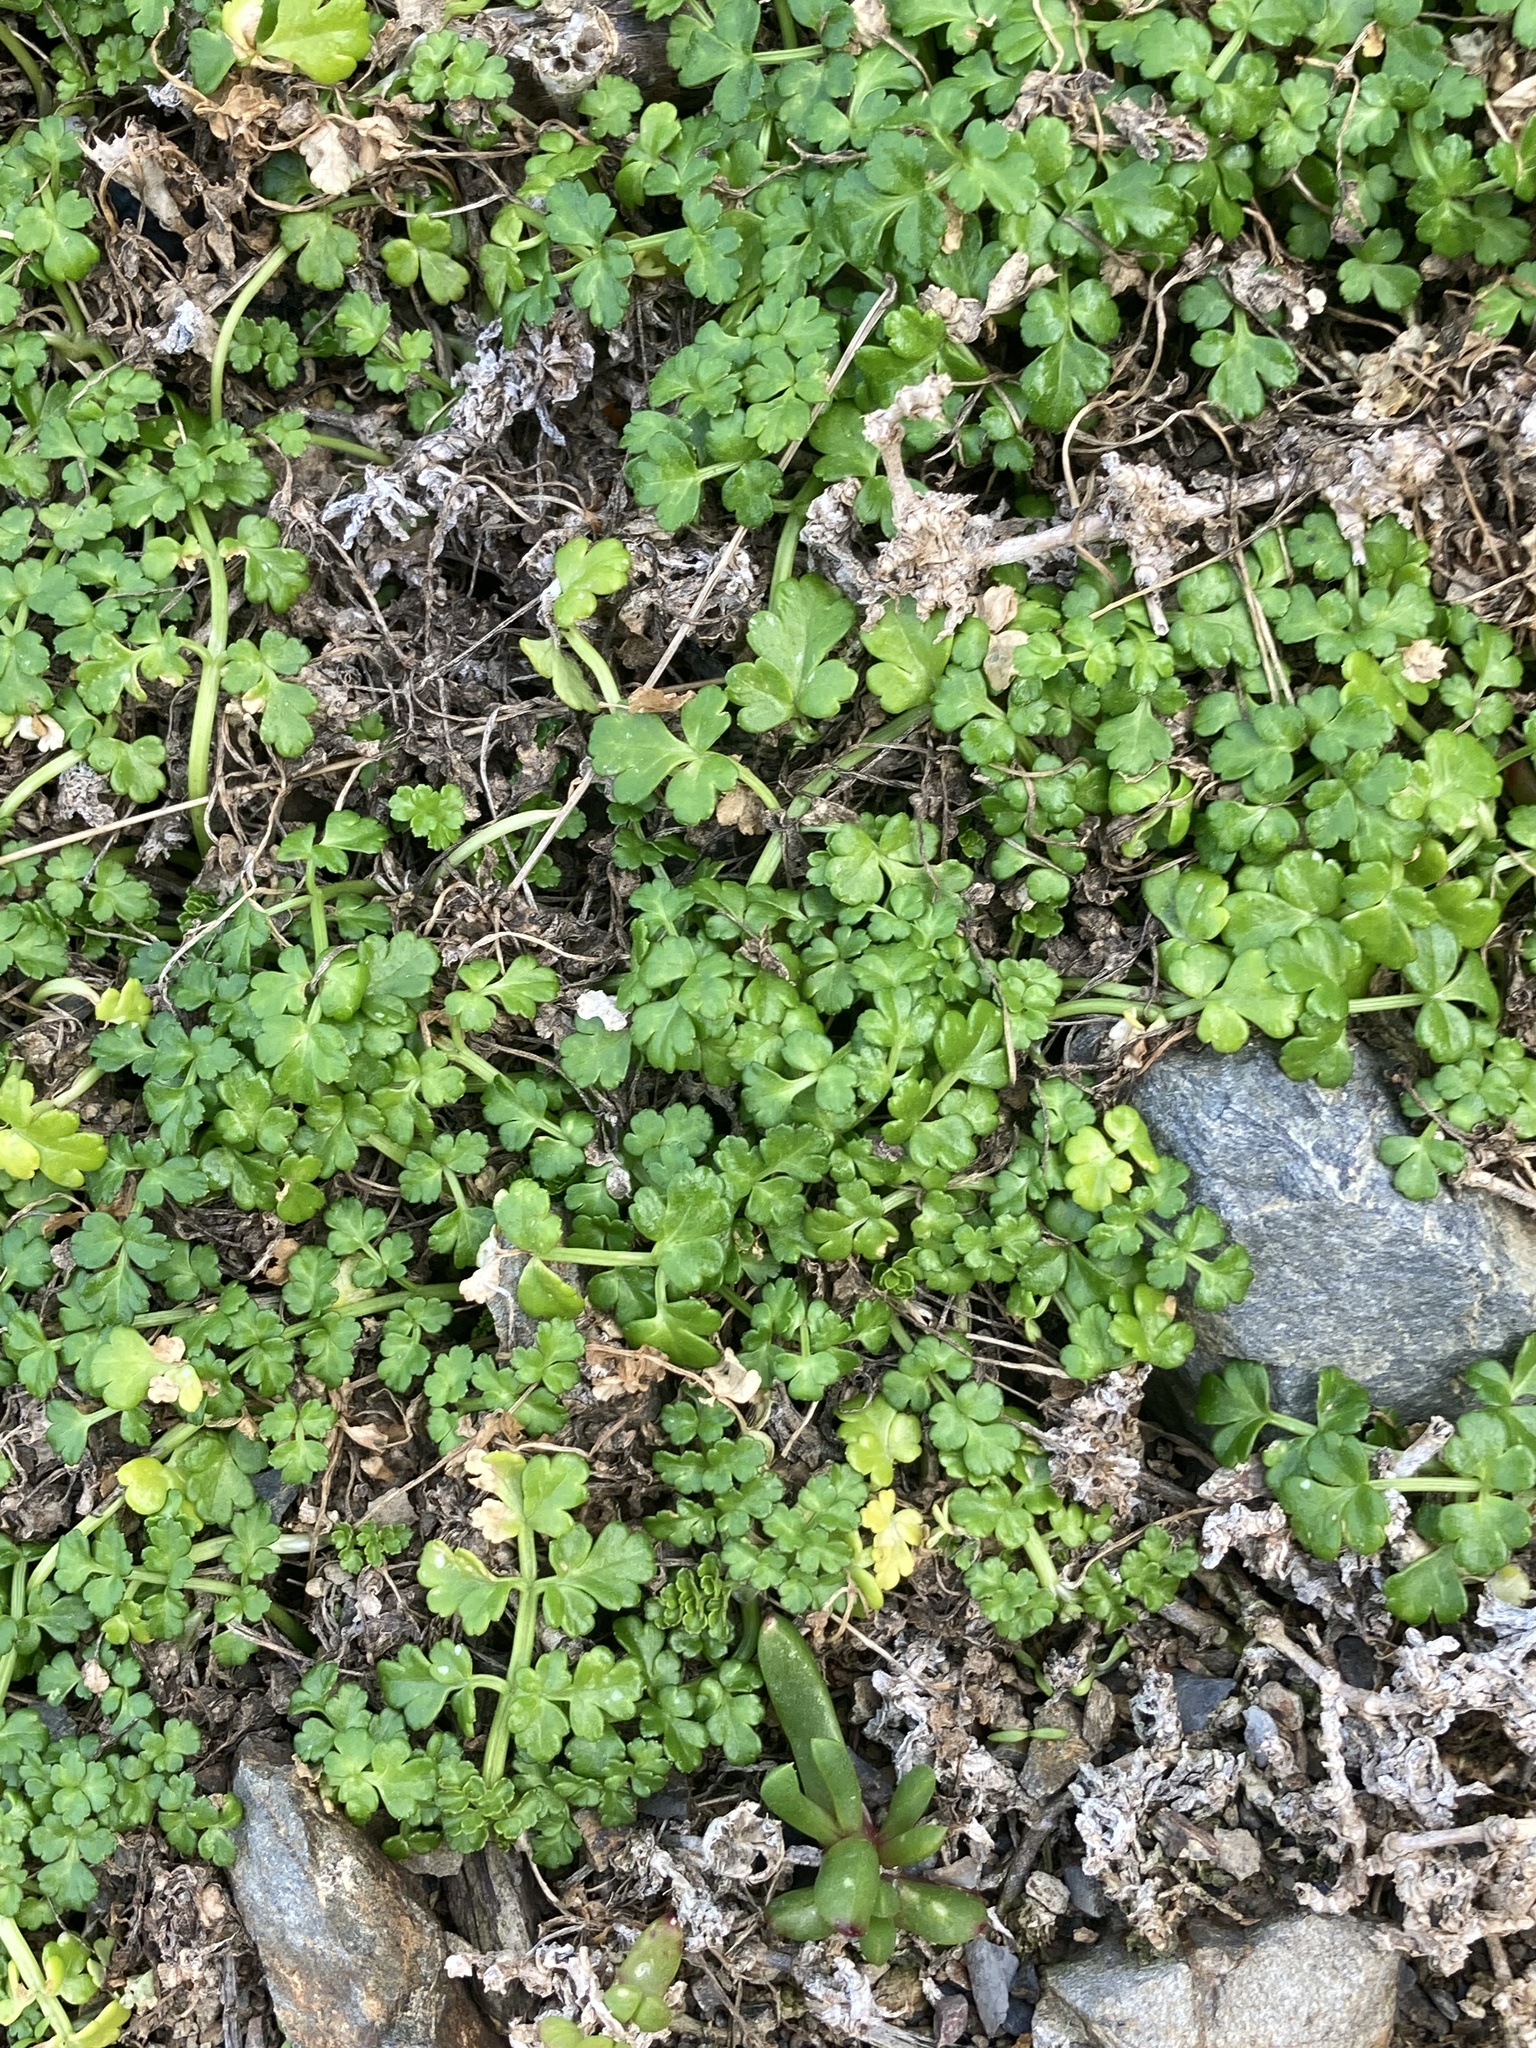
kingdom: Plantae
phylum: Tracheophyta
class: Magnoliopsida
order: Apiales
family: Apiaceae
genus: Apium
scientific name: Apium prostratum
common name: Prostrate marshwort
